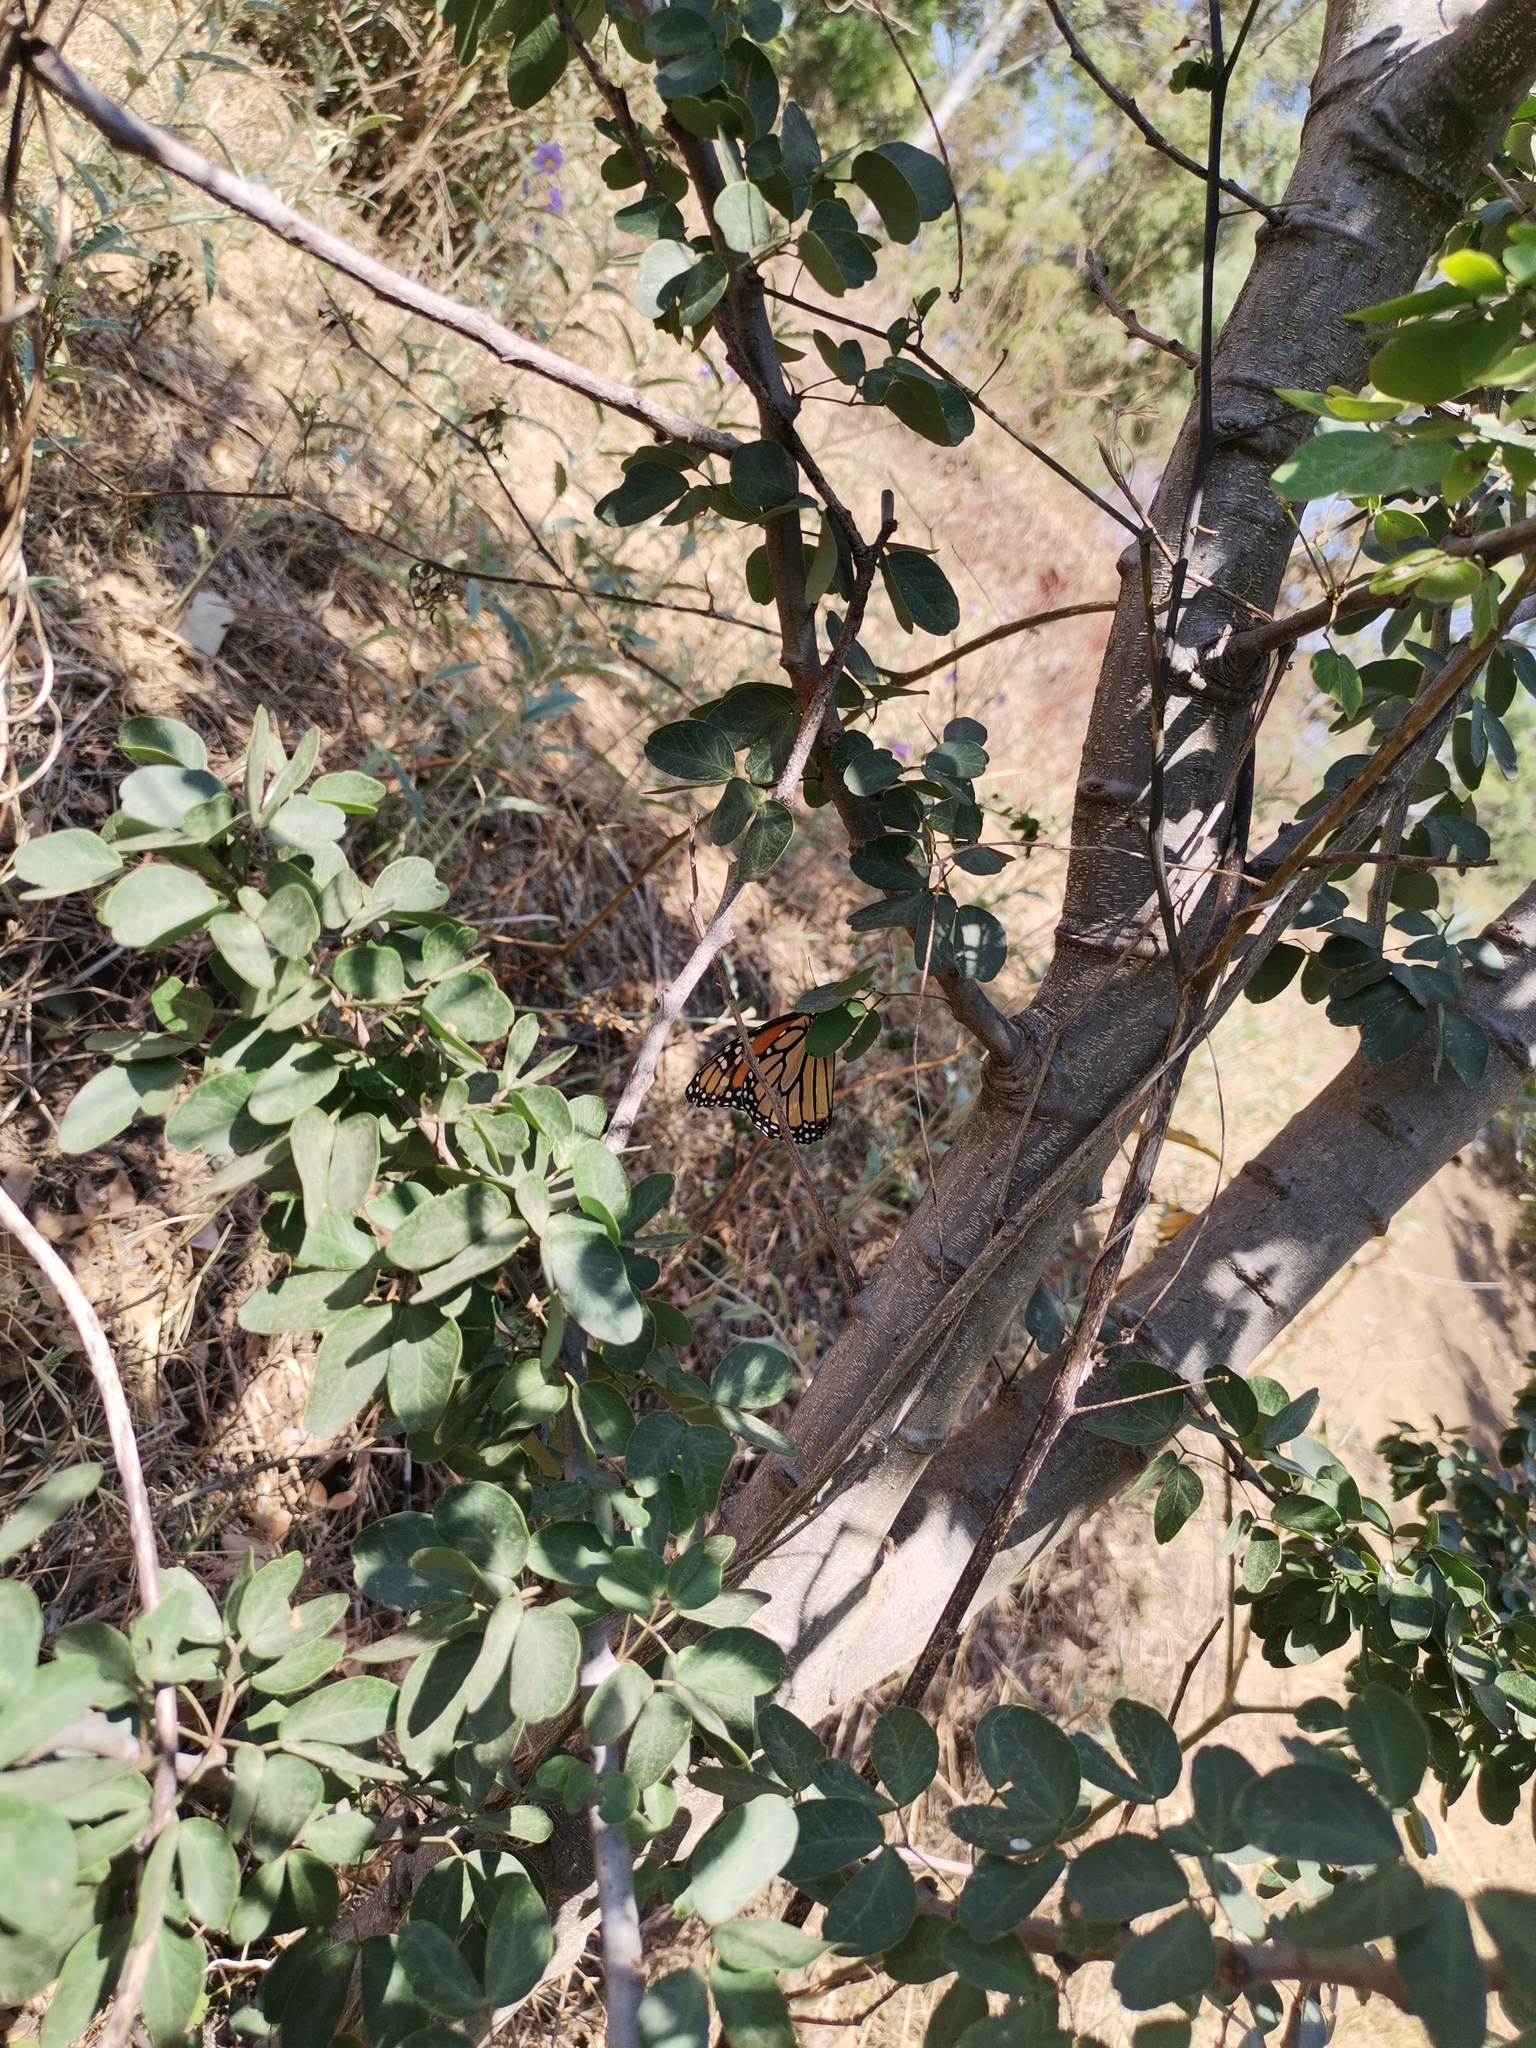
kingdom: Plantae
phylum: Tracheophyta
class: Magnoliopsida
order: Fabales
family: Fabaceae
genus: Pithecellobium
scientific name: Pithecellobium dulce
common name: Monkeypod
